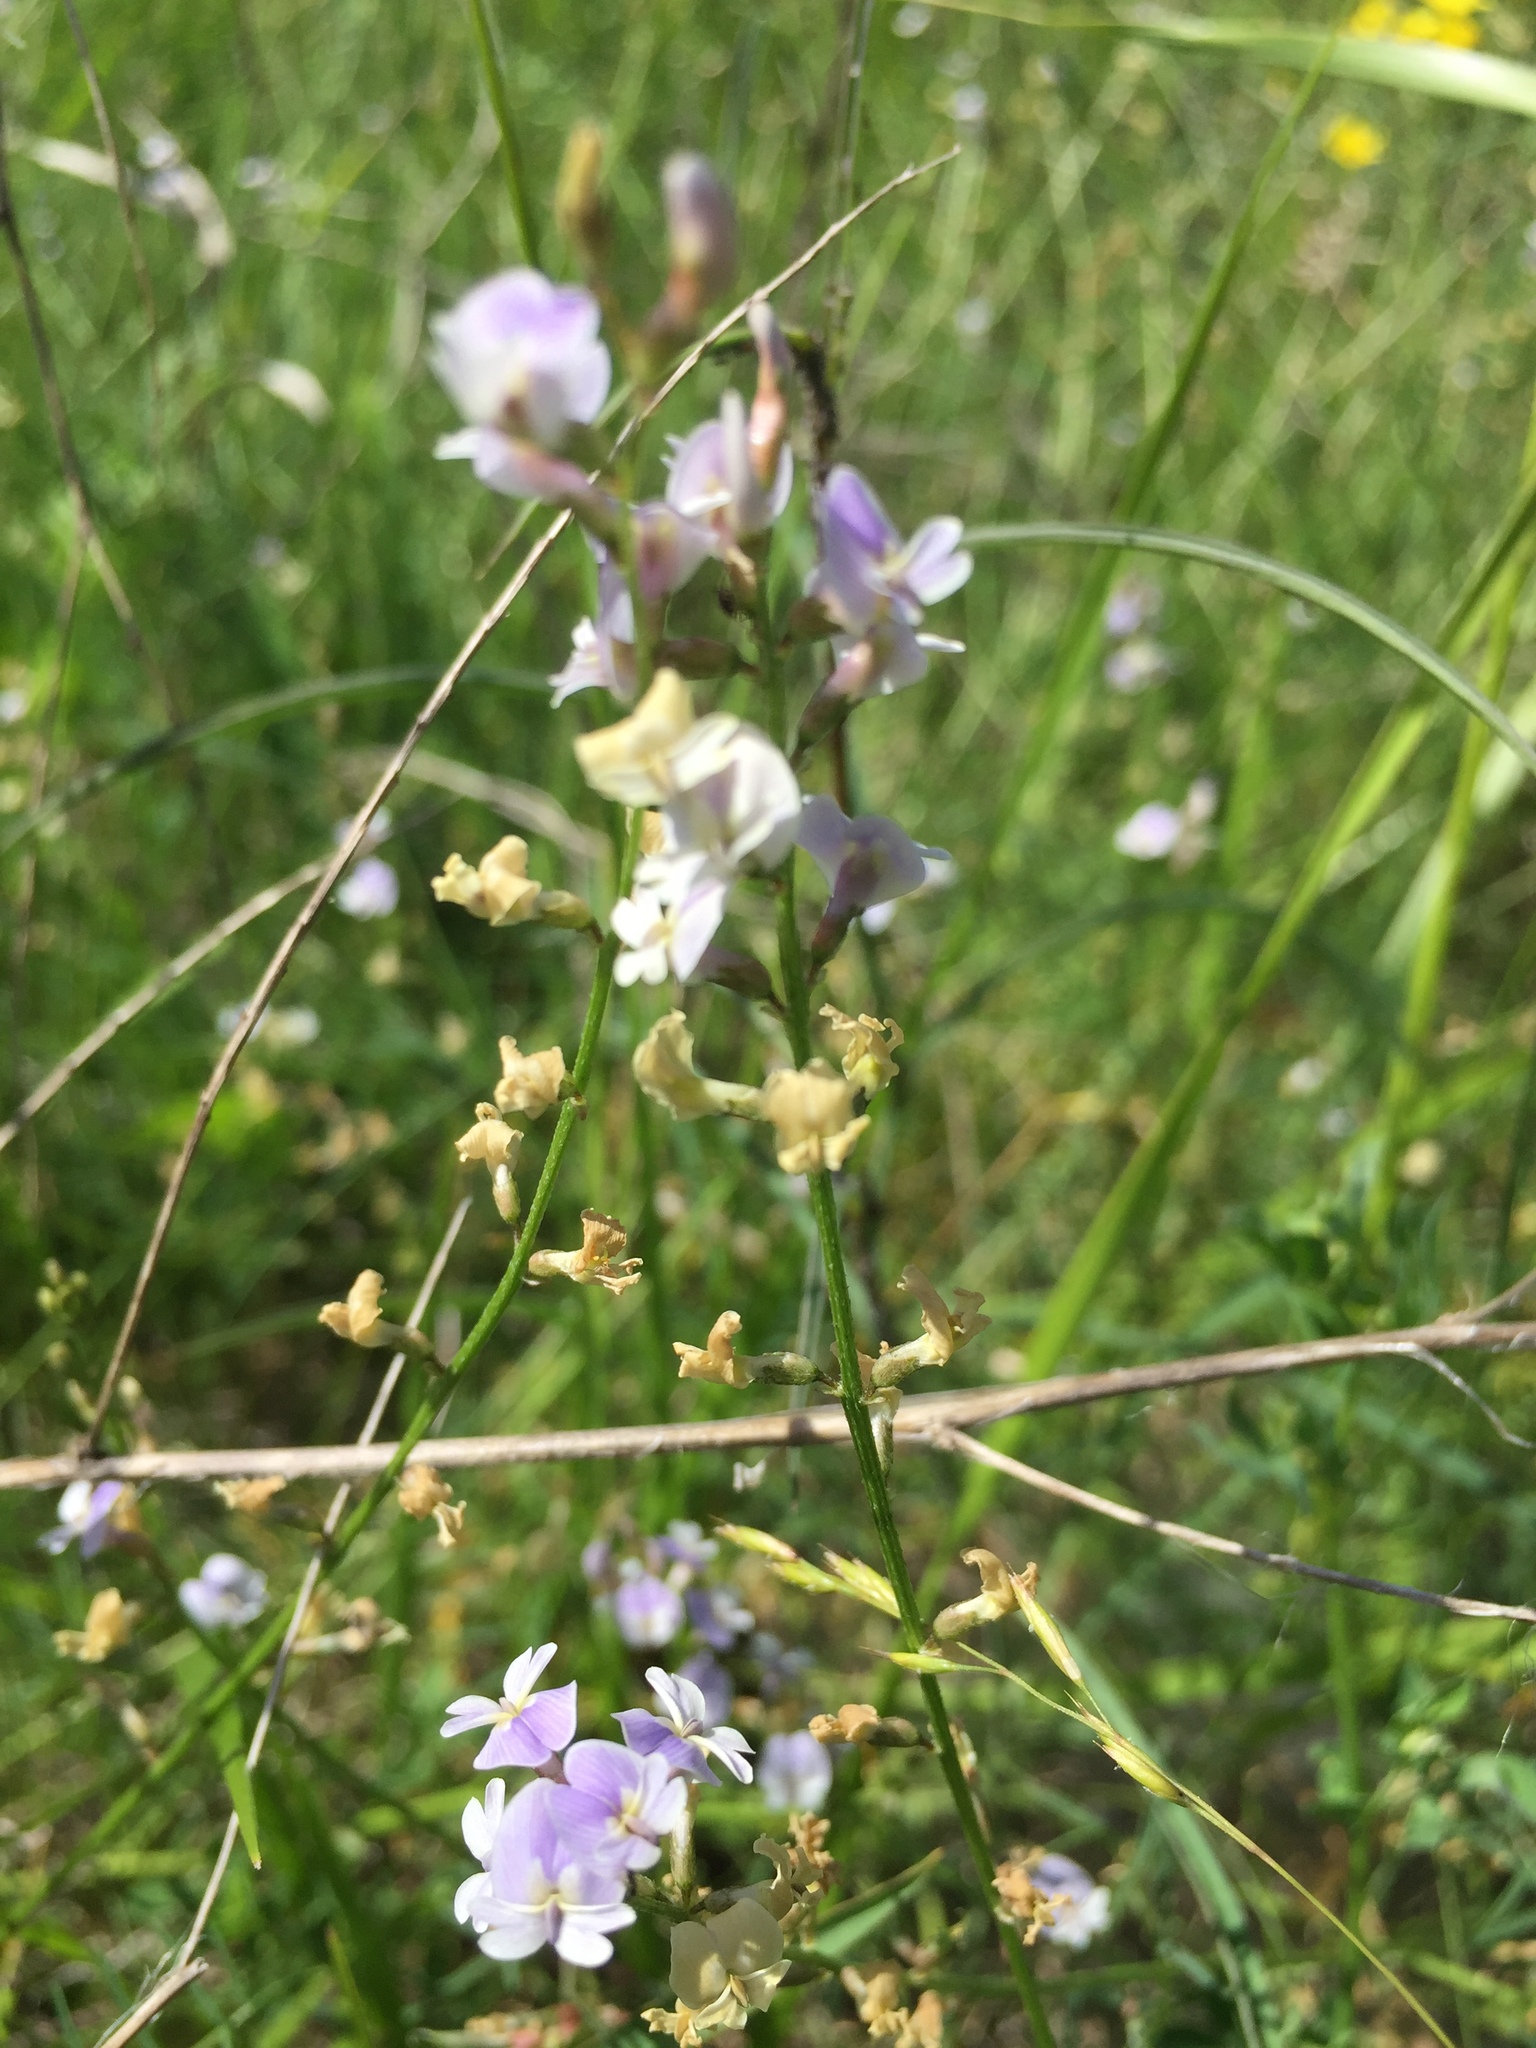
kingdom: Plantae
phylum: Tracheophyta
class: Magnoliopsida
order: Fabales
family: Fabaceae
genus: Astragalus
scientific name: Astragalus austriacus
